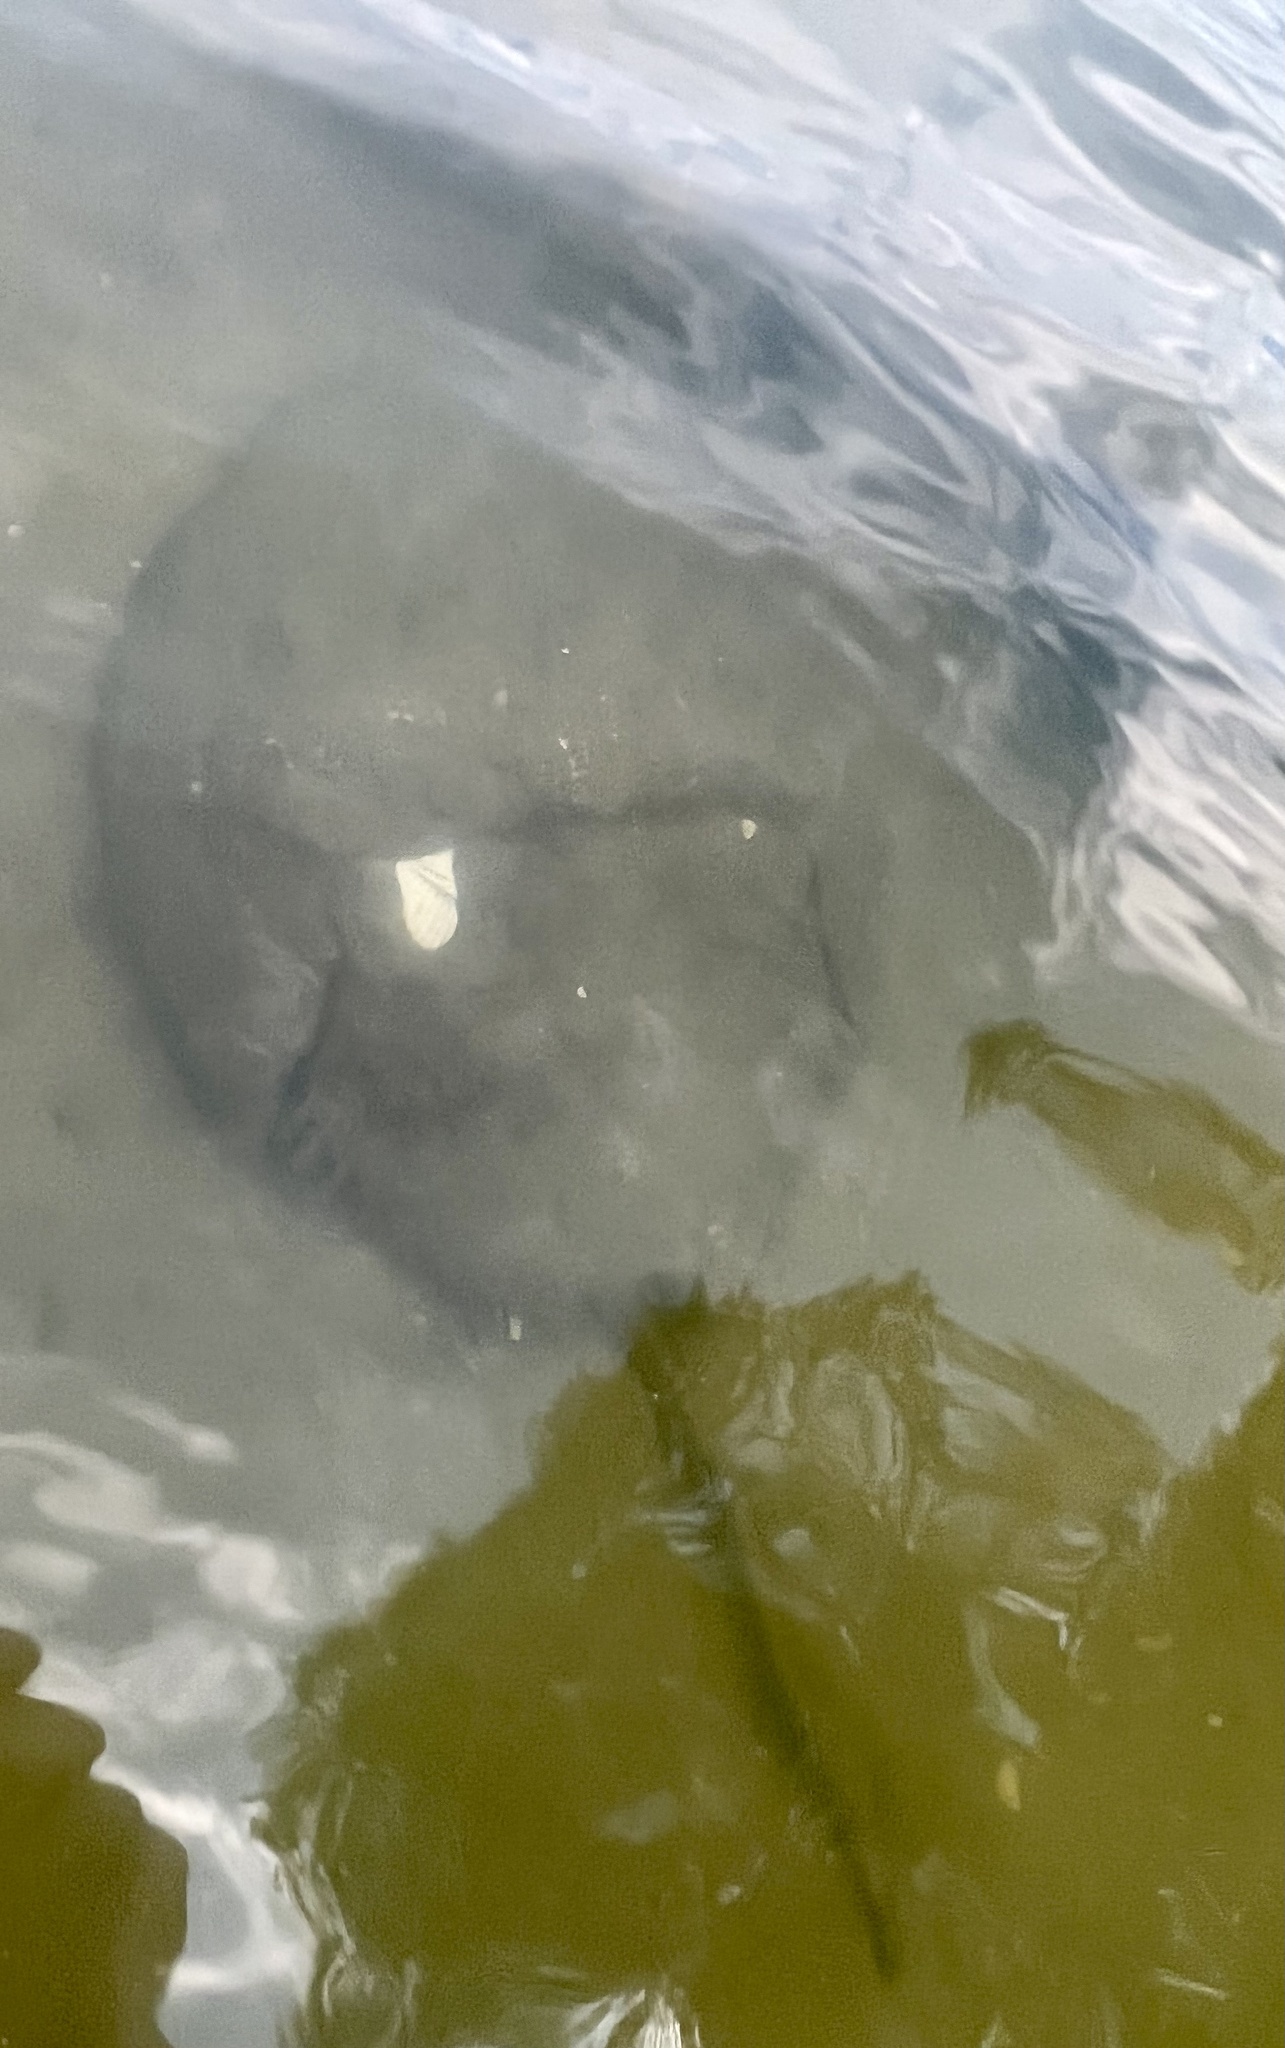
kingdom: Animalia
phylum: Arthropoda
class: Merostomata
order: Xiphosurida
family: Limulidae
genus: Limulus
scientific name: Limulus polyphemus
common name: Horseshoe crab
